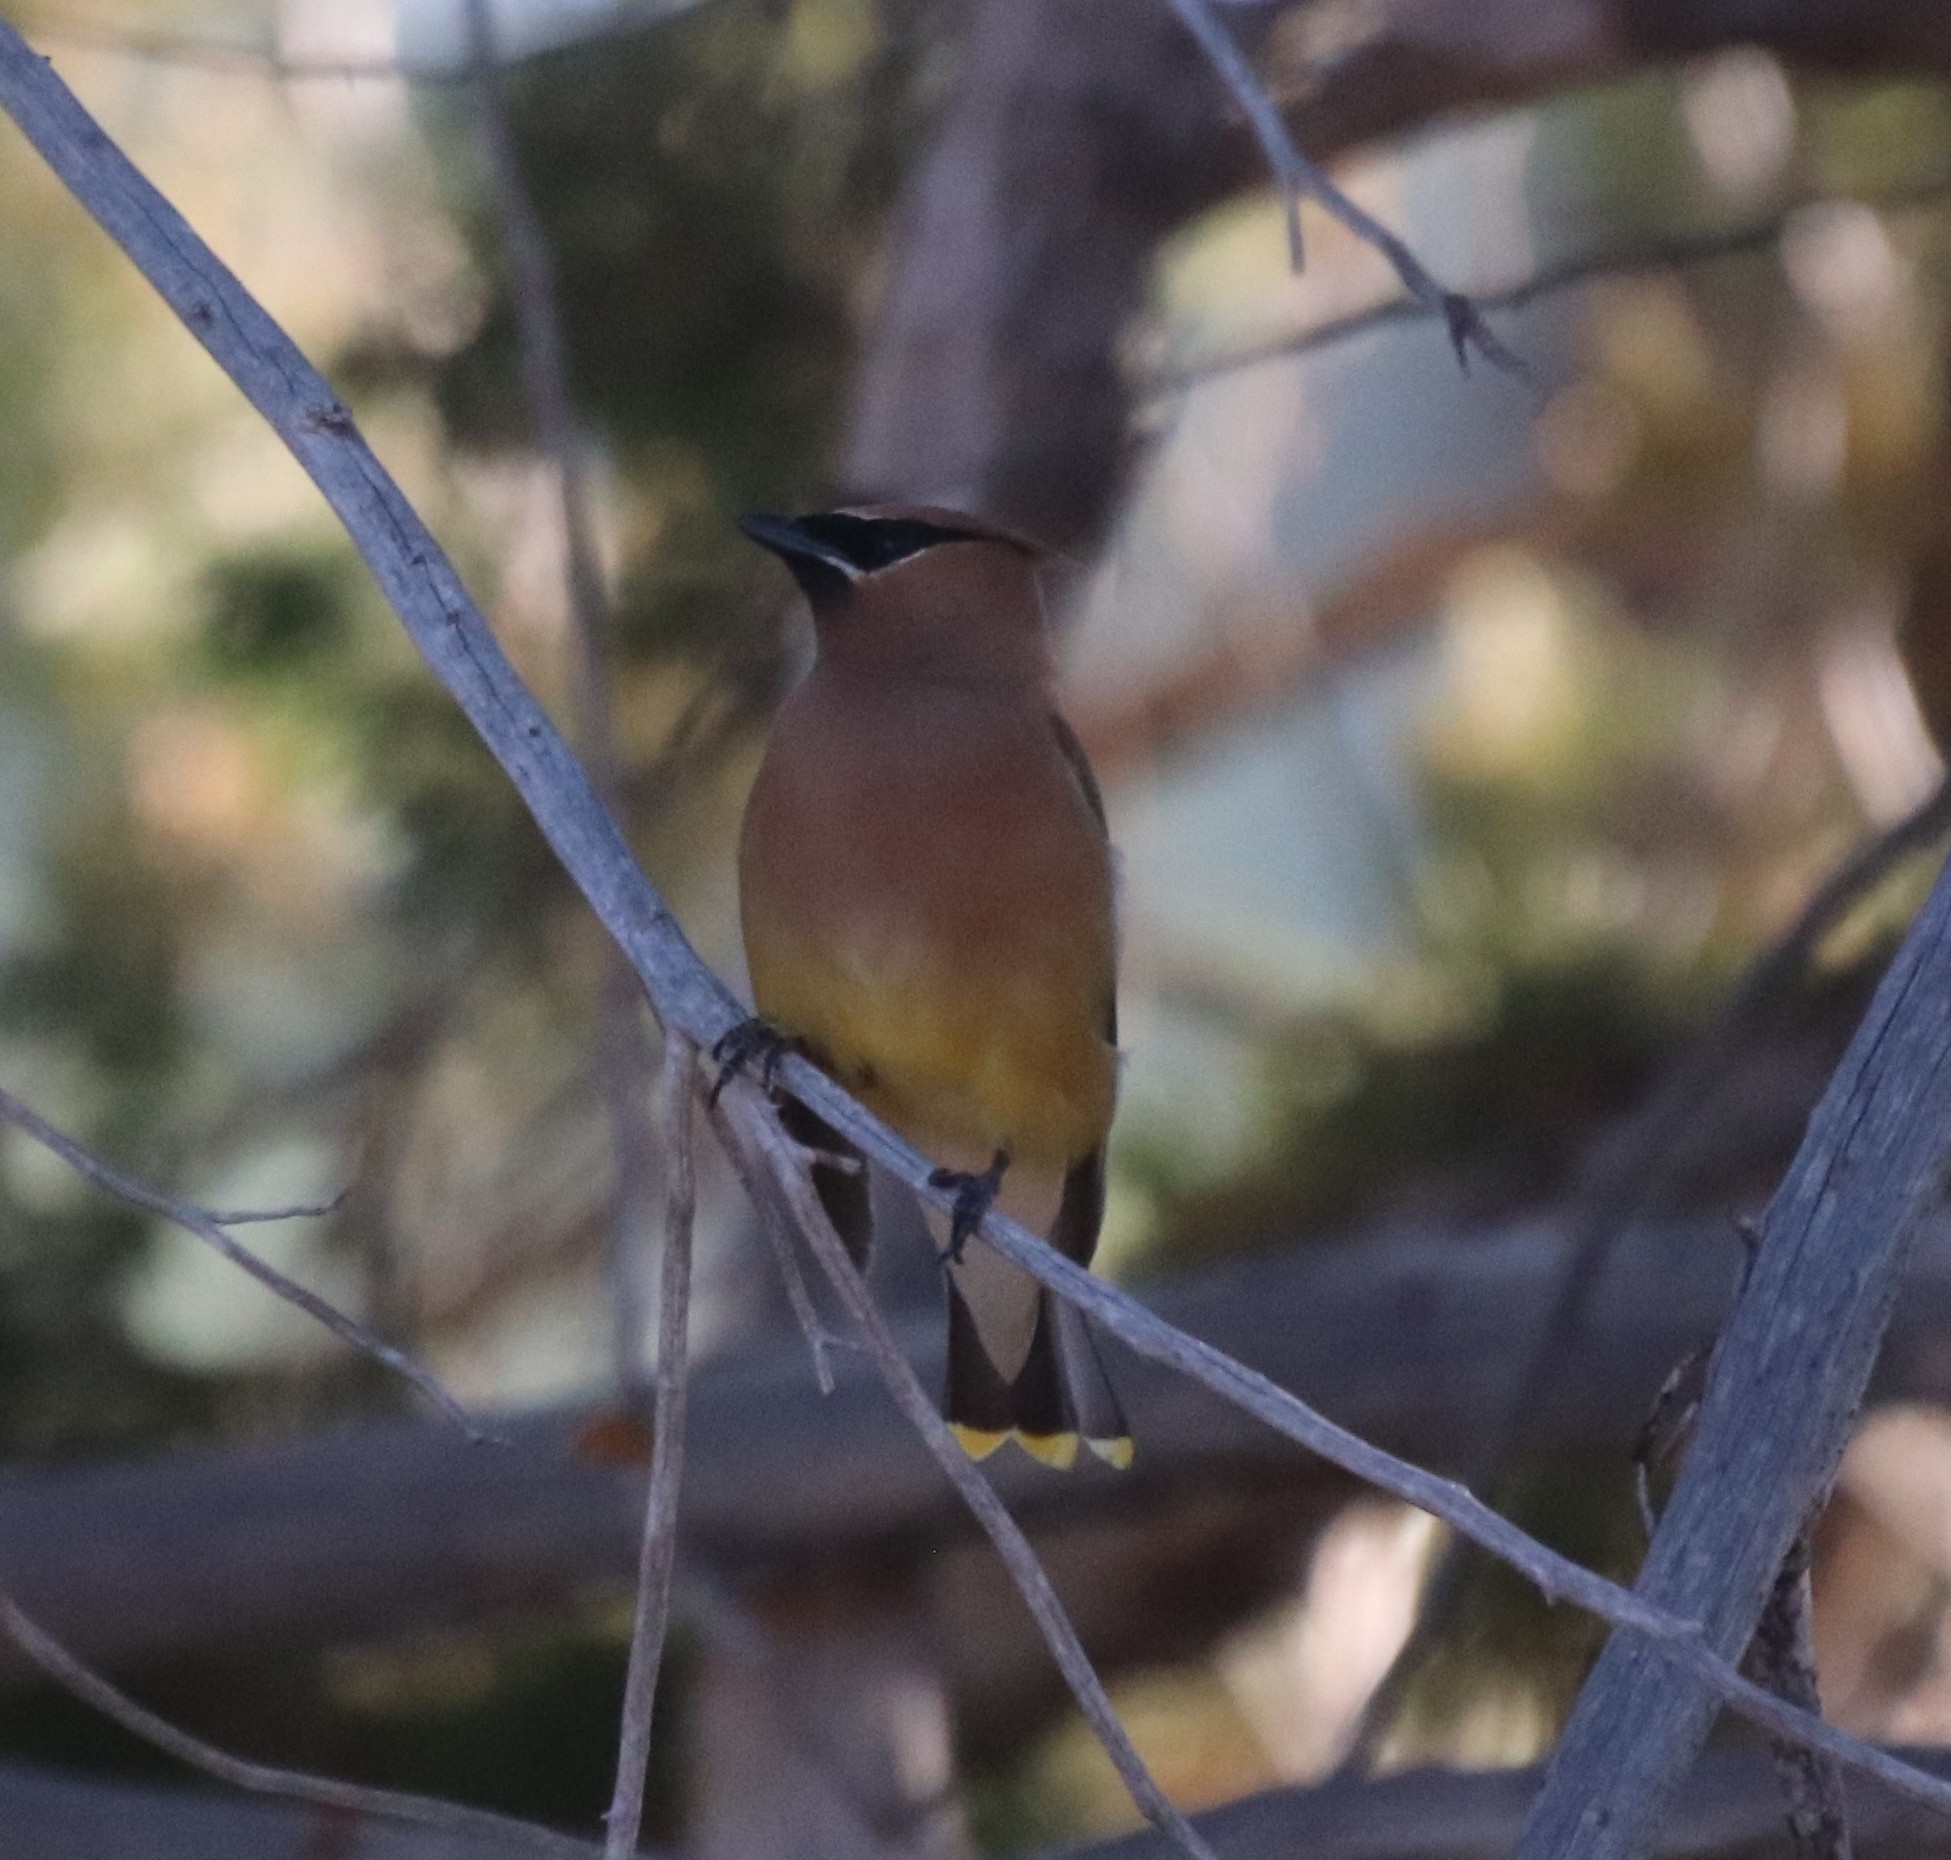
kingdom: Animalia
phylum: Chordata
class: Aves
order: Passeriformes
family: Bombycillidae
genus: Bombycilla
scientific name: Bombycilla cedrorum
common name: Cedar waxwing
